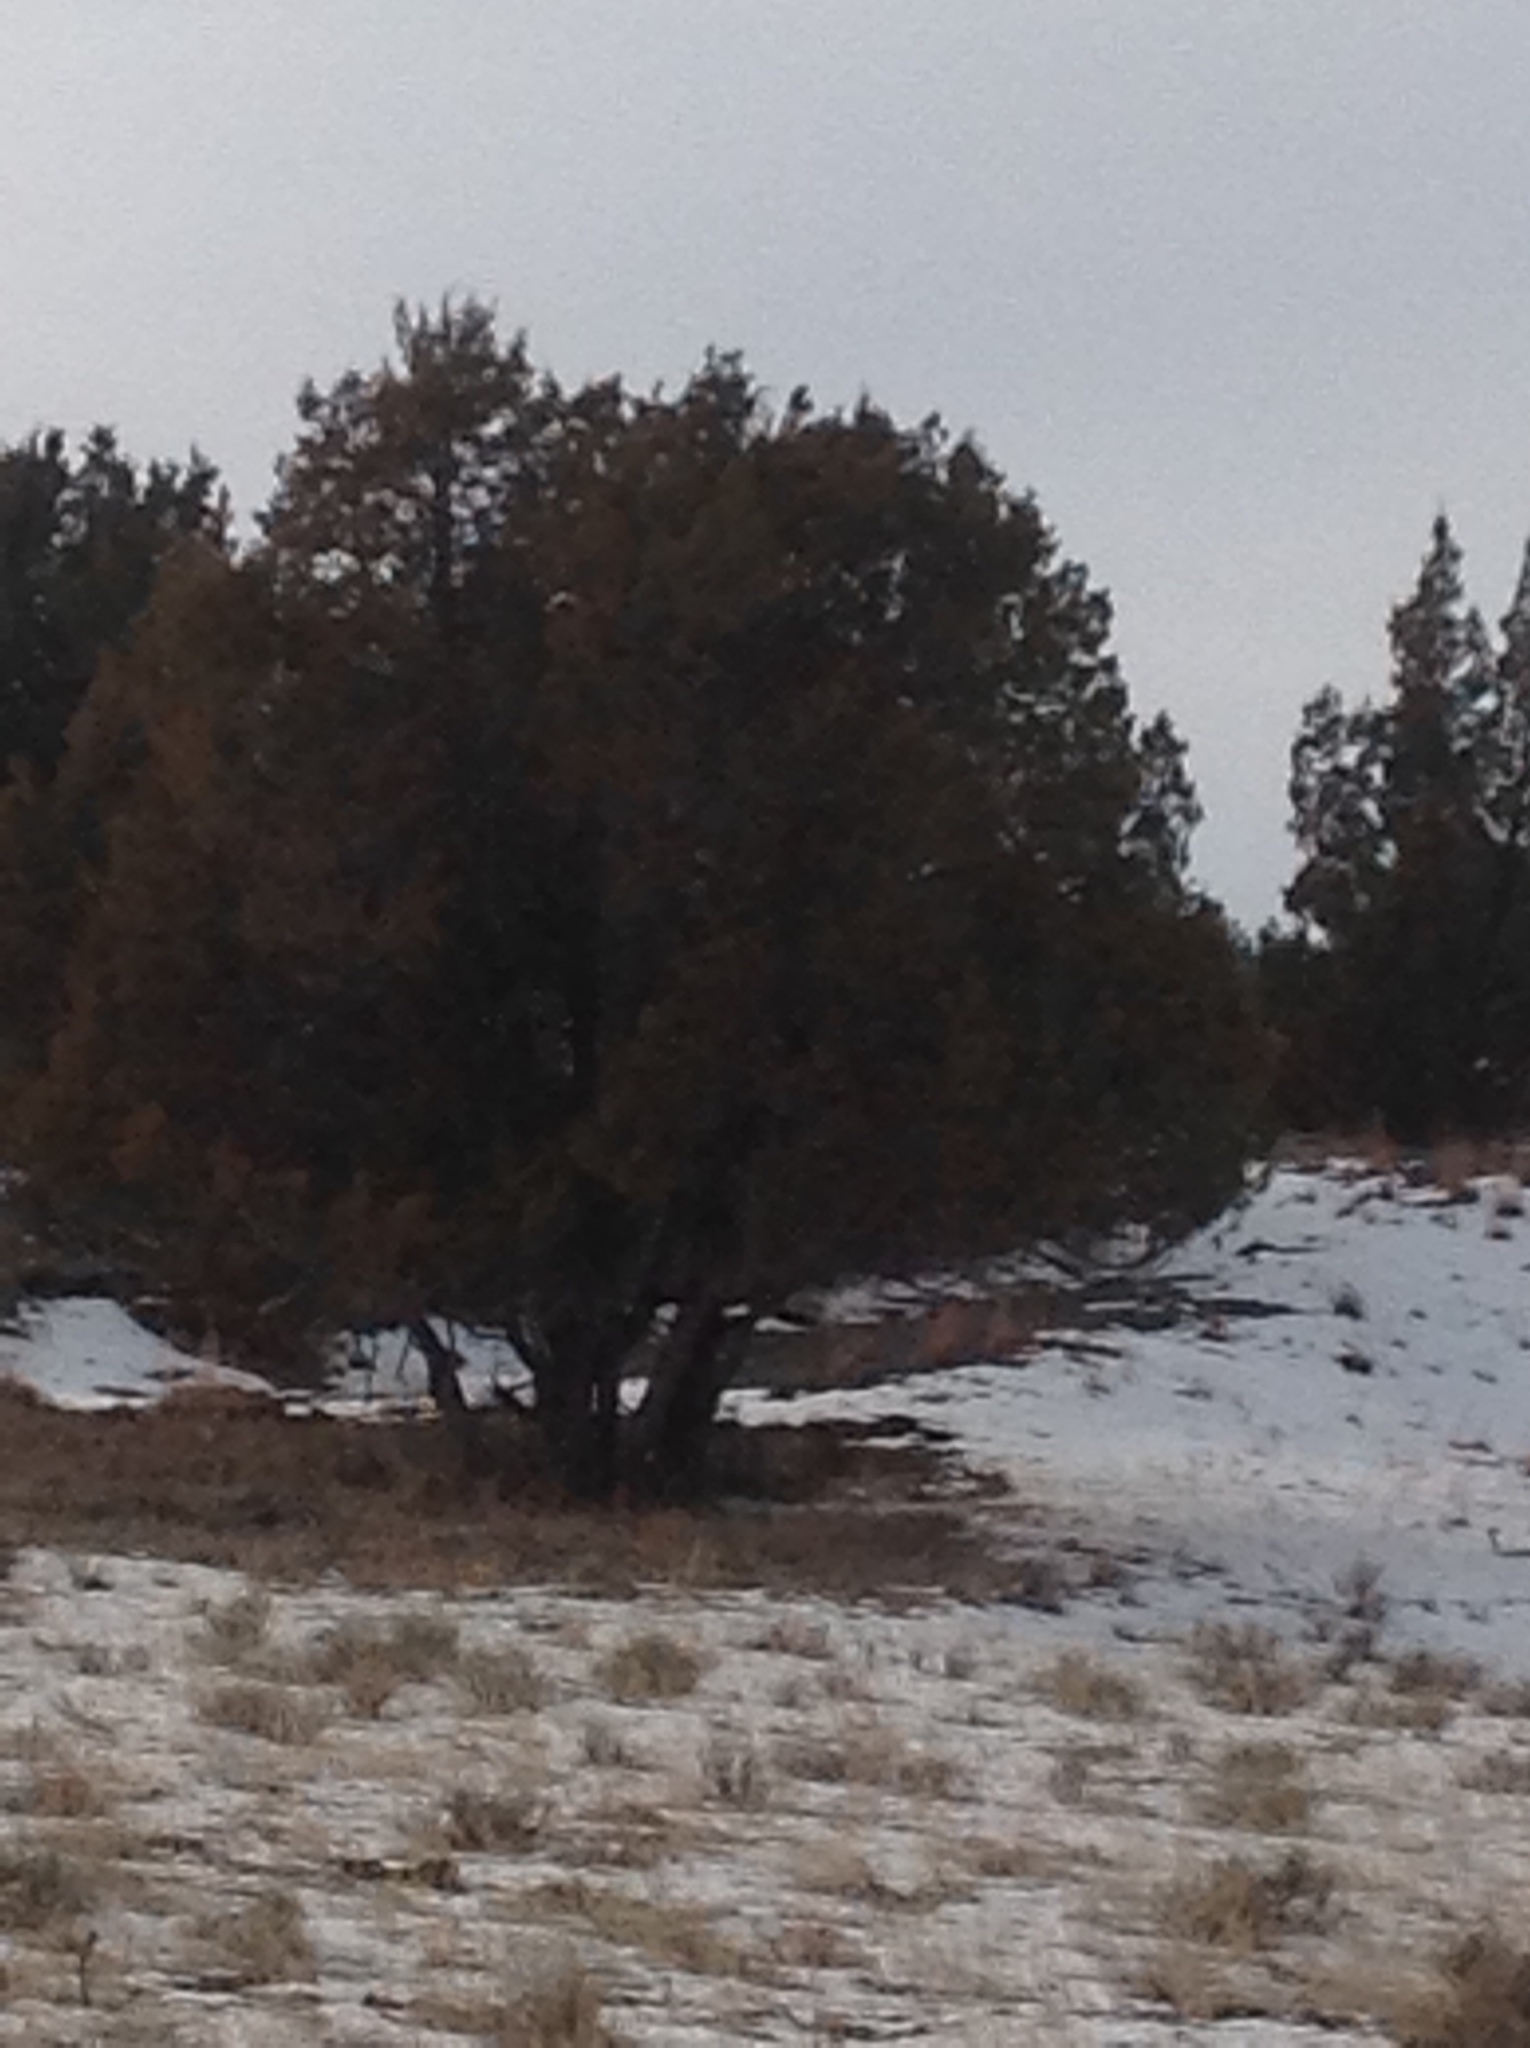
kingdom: Plantae
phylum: Tracheophyta
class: Pinopsida
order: Pinales
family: Cupressaceae
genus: Juniperus
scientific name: Juniperus scopulorum
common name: Rocky mountain juniper
